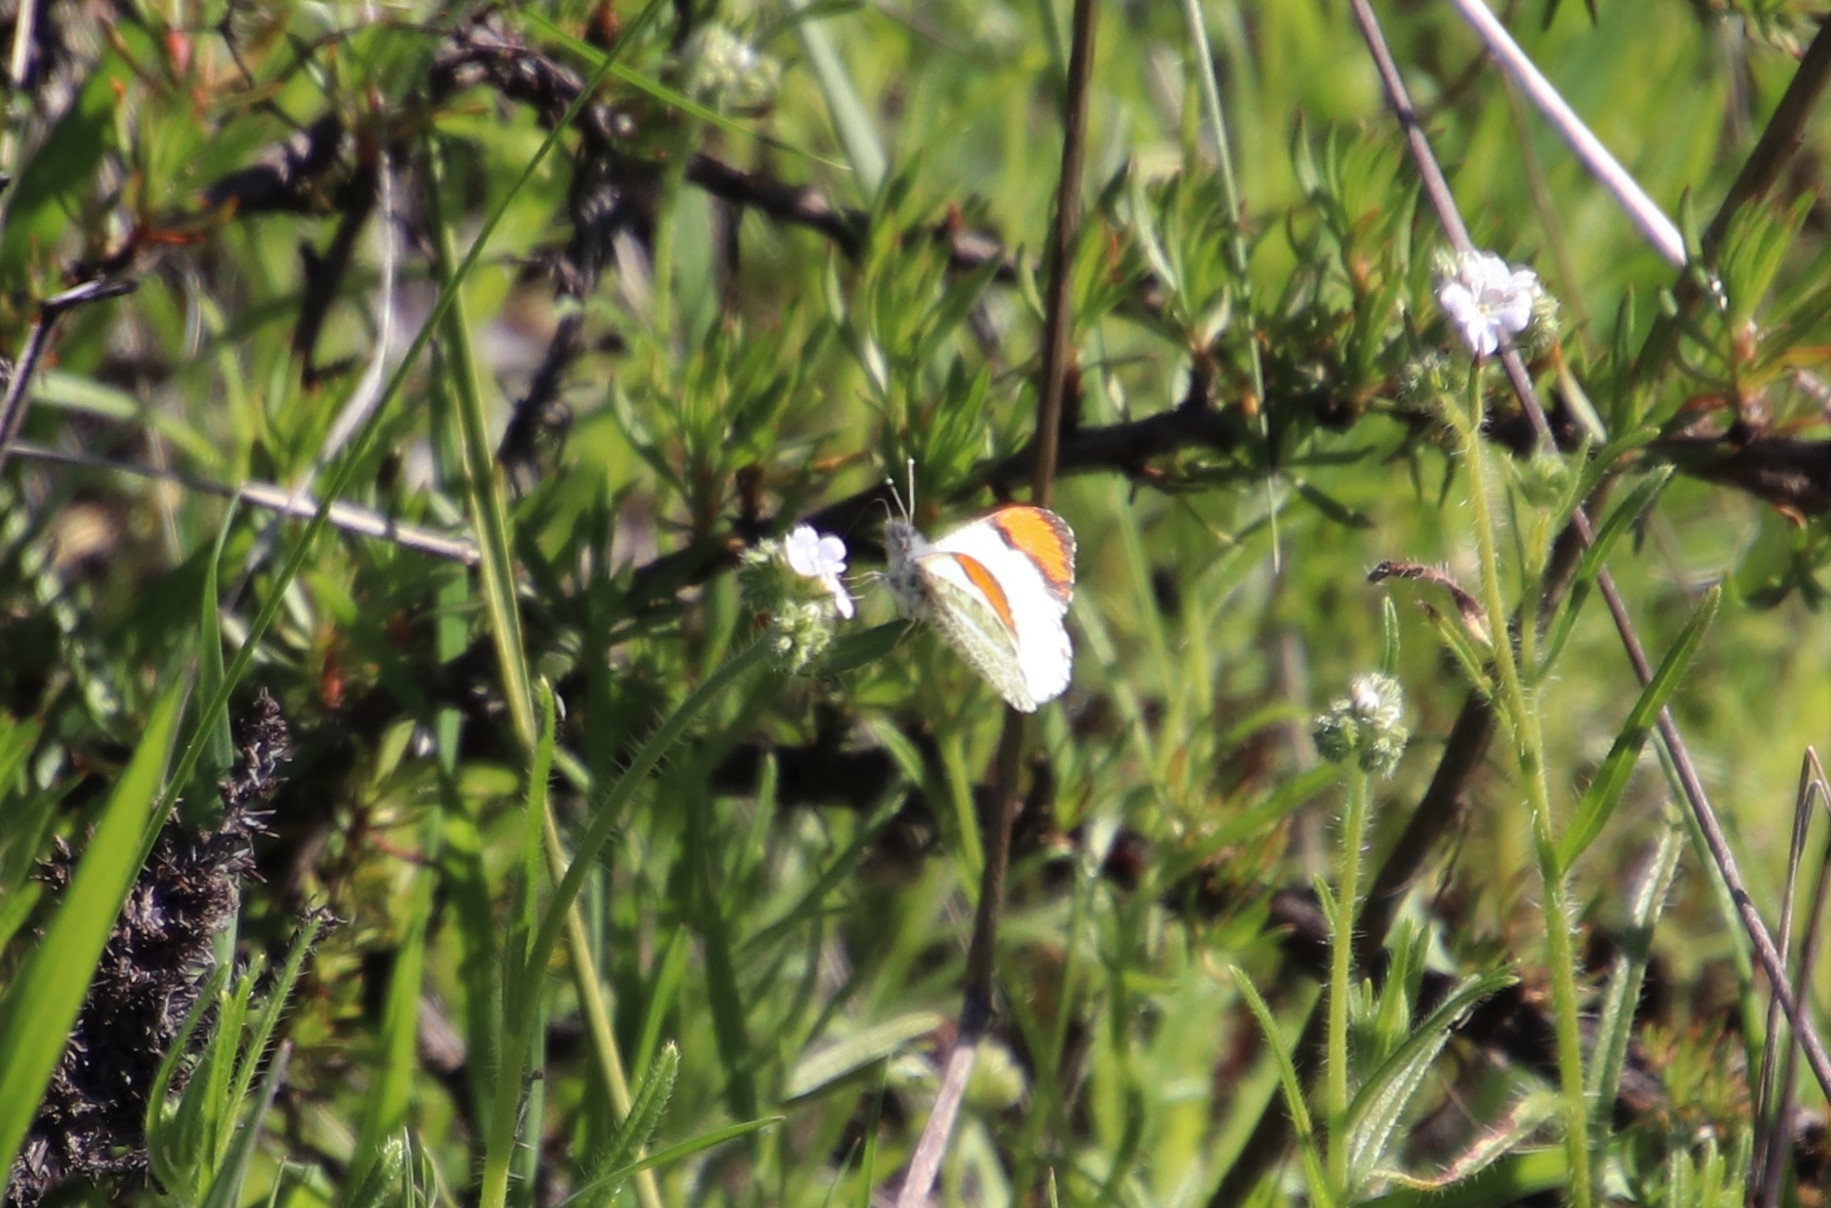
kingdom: Animalia
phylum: Arthropoda
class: Insecta
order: Lepidoptera
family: Pieridae
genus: Anthocharis
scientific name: Anthocharis sara
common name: Sara's orangetip
